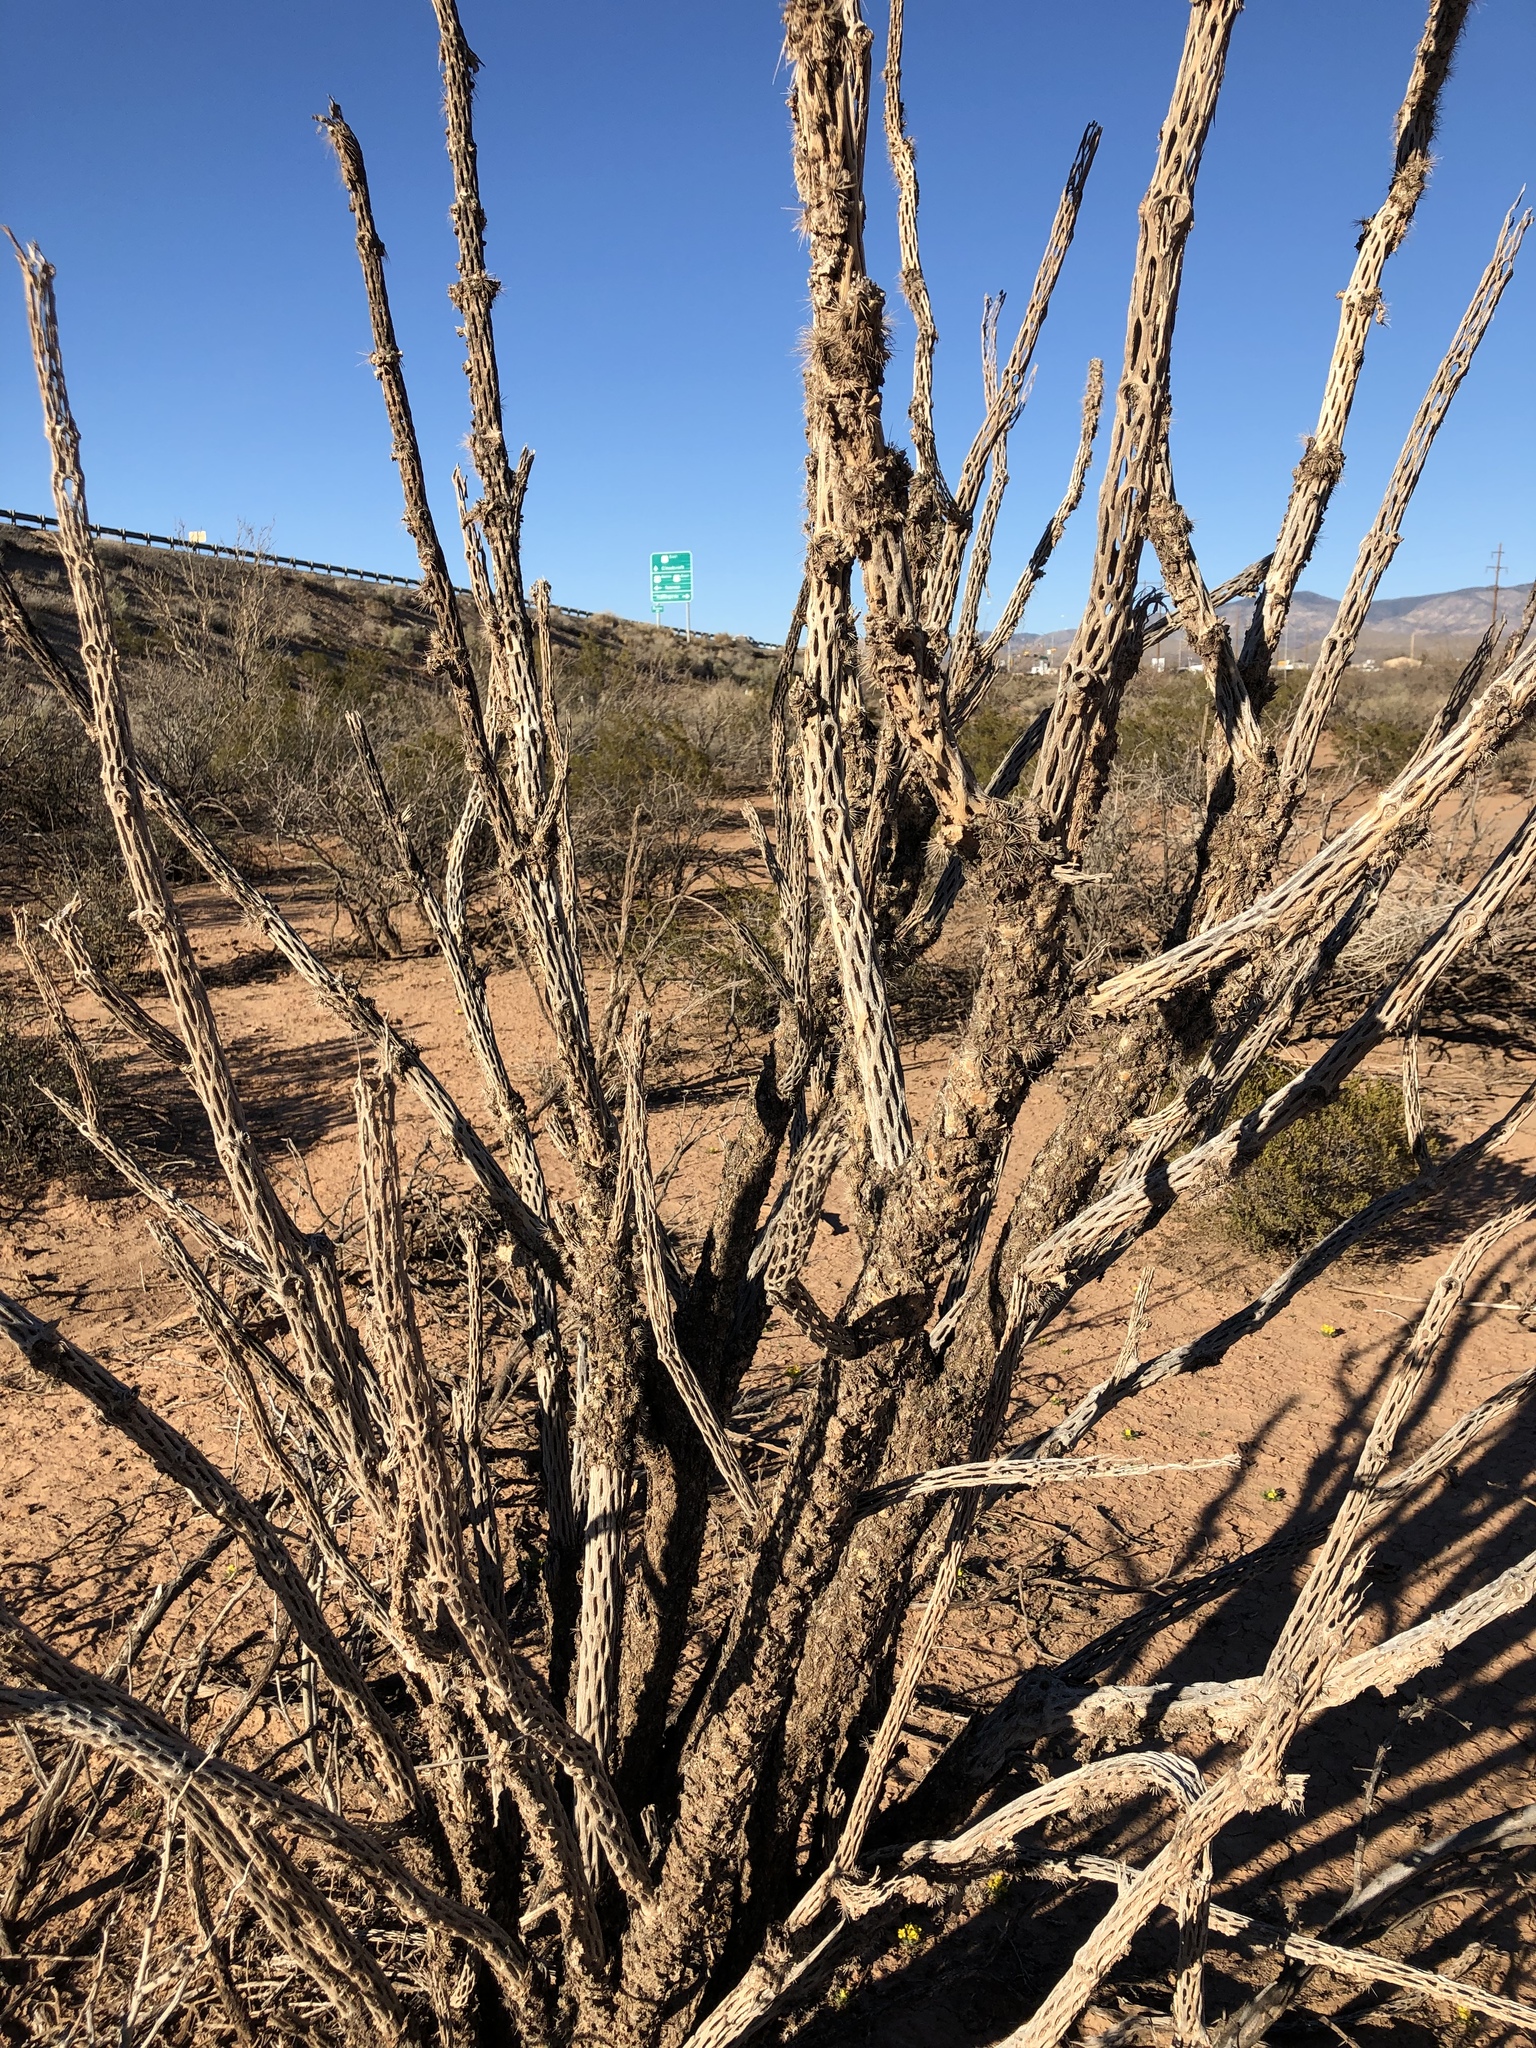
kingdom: Plantae
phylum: Tracheophyta
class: Magnoliopsida
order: Caryophyllales
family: Cactaceae
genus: Cylindropuntia
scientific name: Cylindropuntia imbricata
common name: Candelabrum cactus
